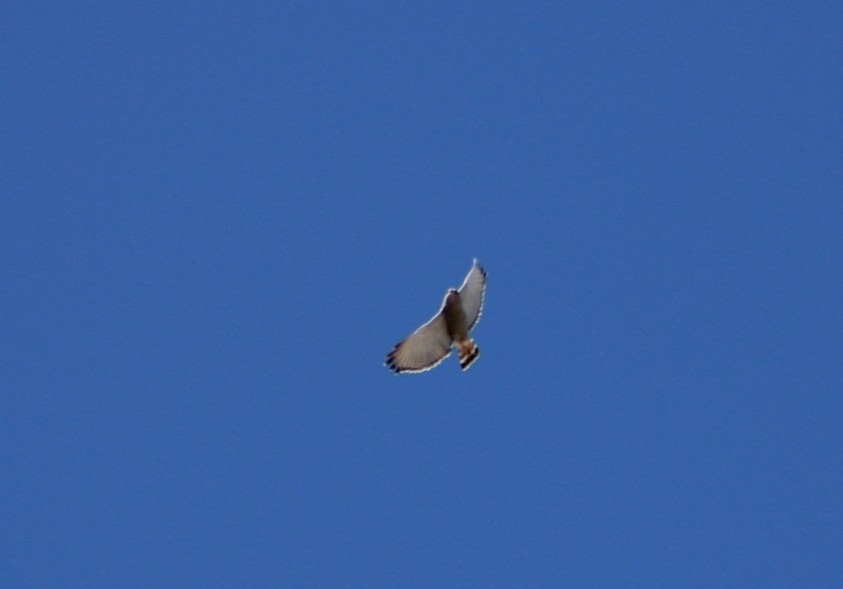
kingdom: Animalia
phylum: Chordata
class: Aves
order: Accipitriformes
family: Accipitridae
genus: Buteo
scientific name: Buteo nitidus
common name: Grey-lined hawk
